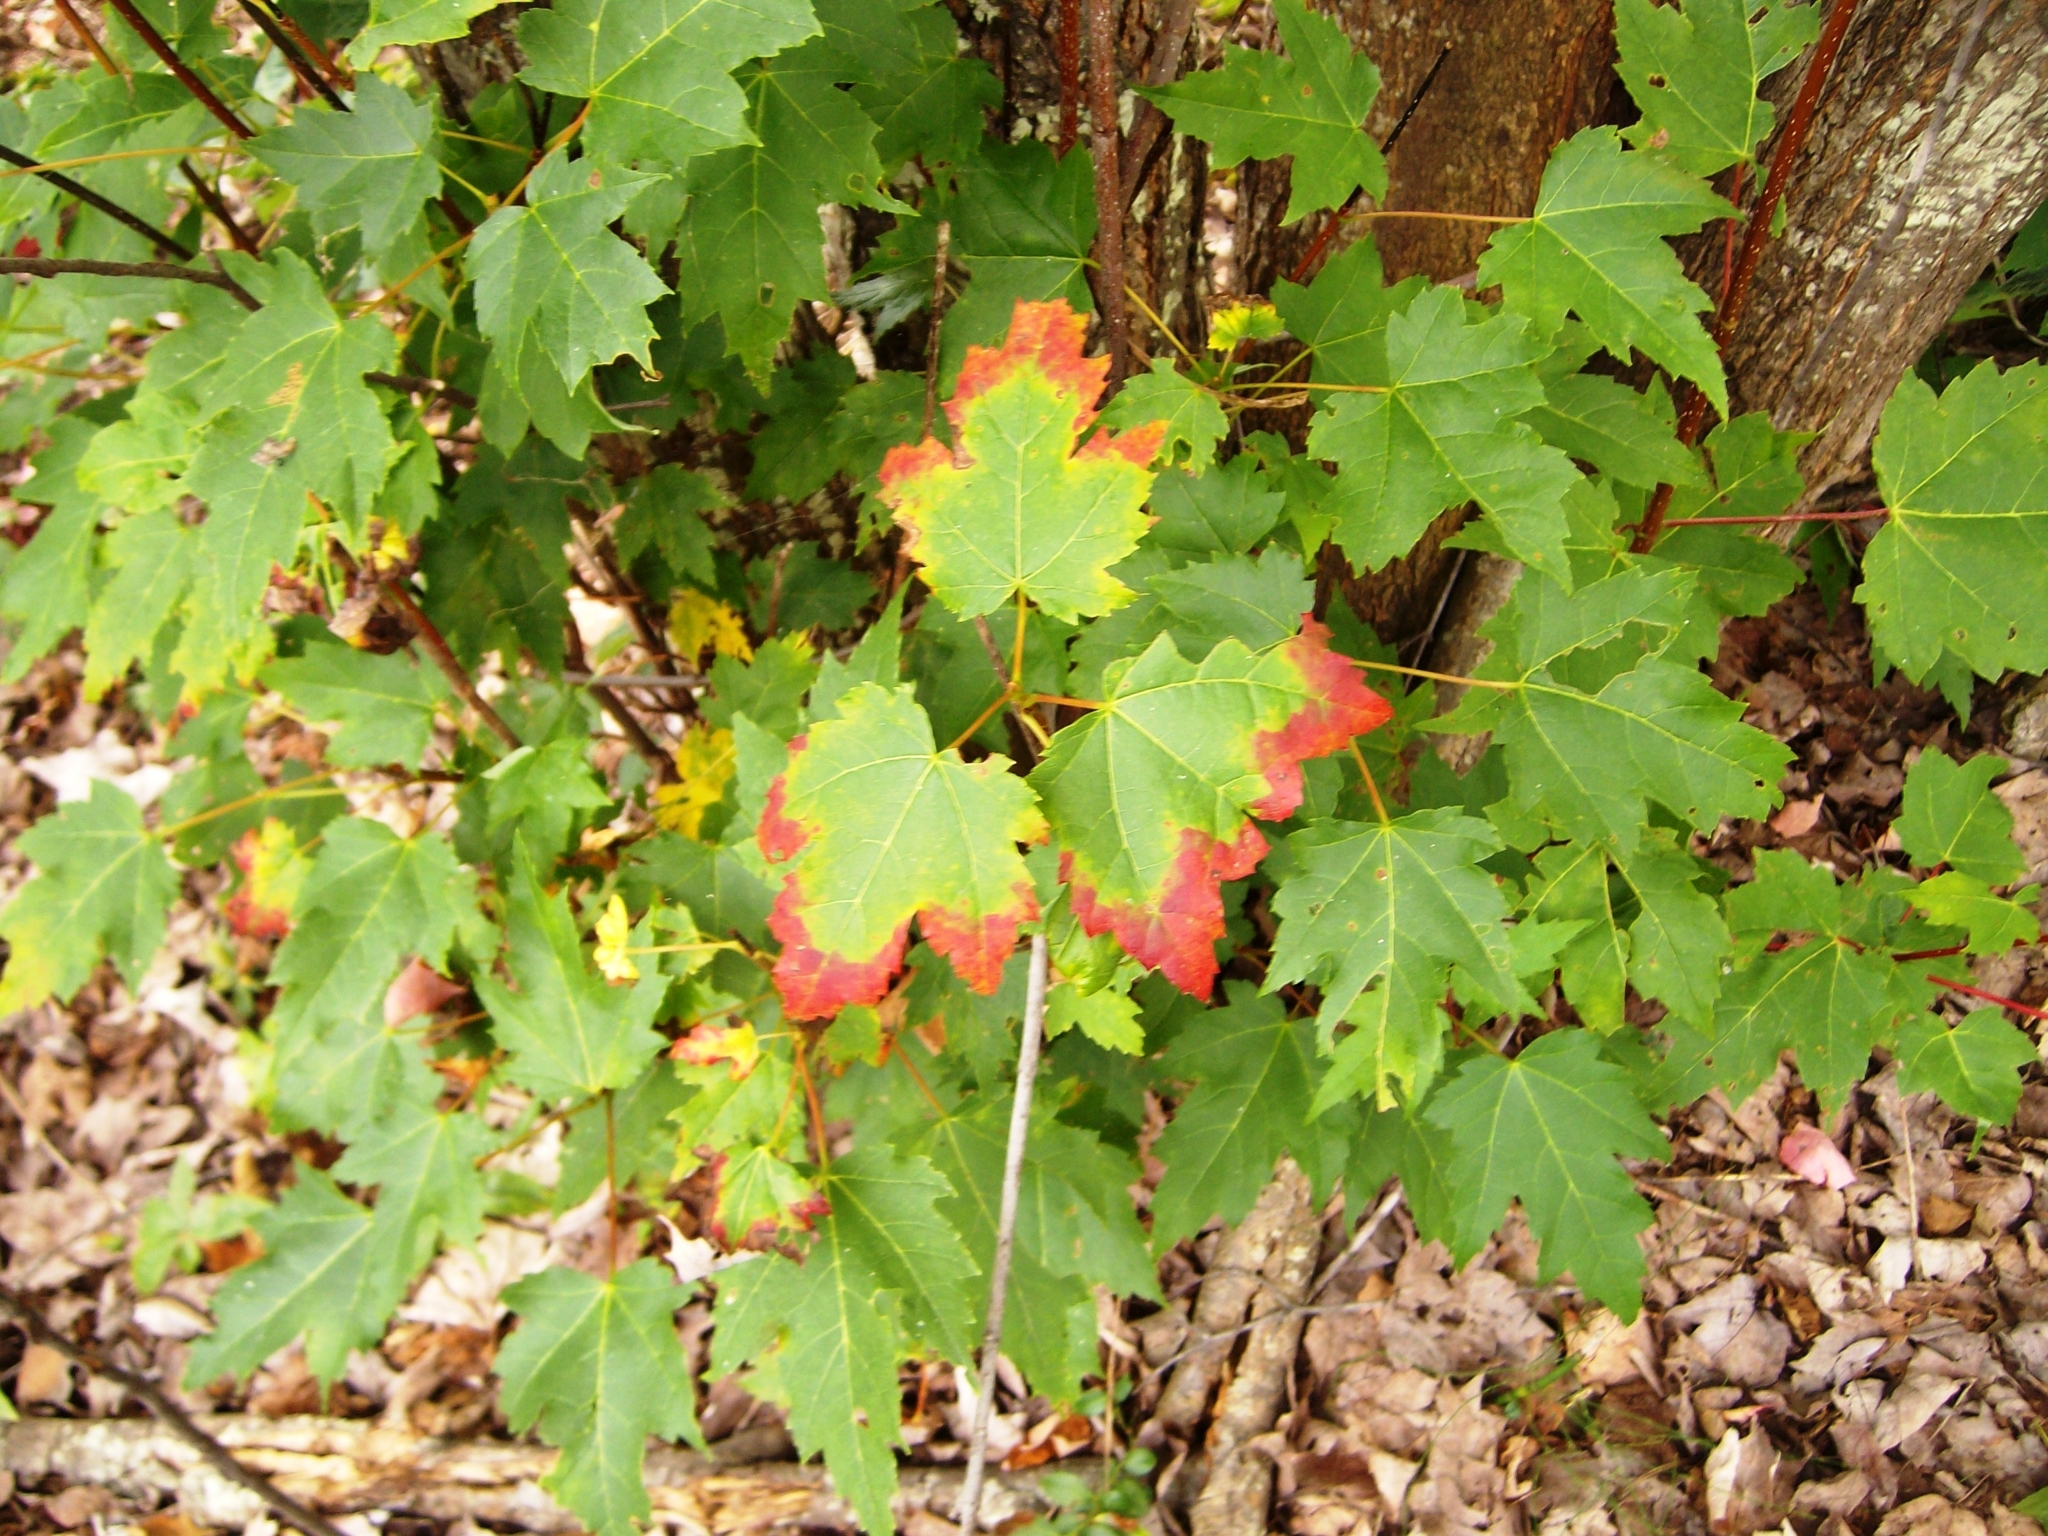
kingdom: Plantae
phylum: Tracheophyta
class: Magnoliopsida
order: Sapindales
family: Sapindaceae
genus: Acer
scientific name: Acer rubrum
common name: Red maple
